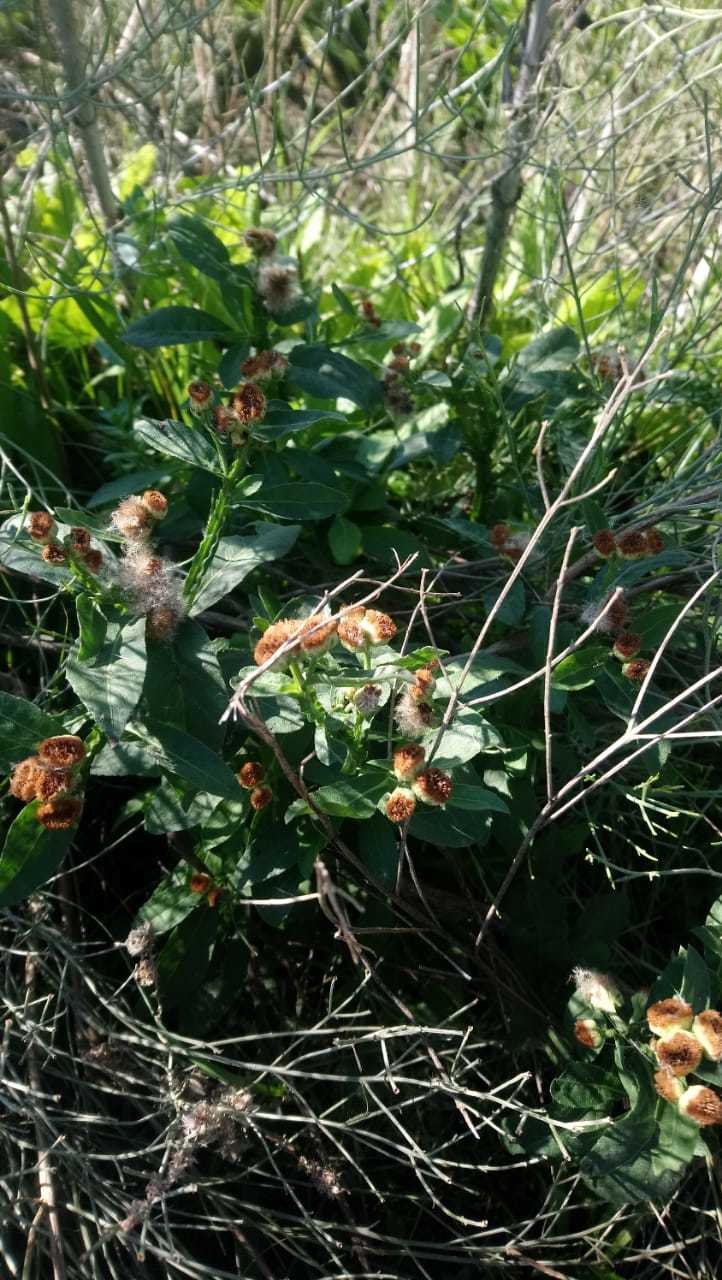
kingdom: Plantae
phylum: Tracheophyta
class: Magnoliopsida
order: Asterales
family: Asteraceae
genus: Pluchea
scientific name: Pluchea sagittalis
